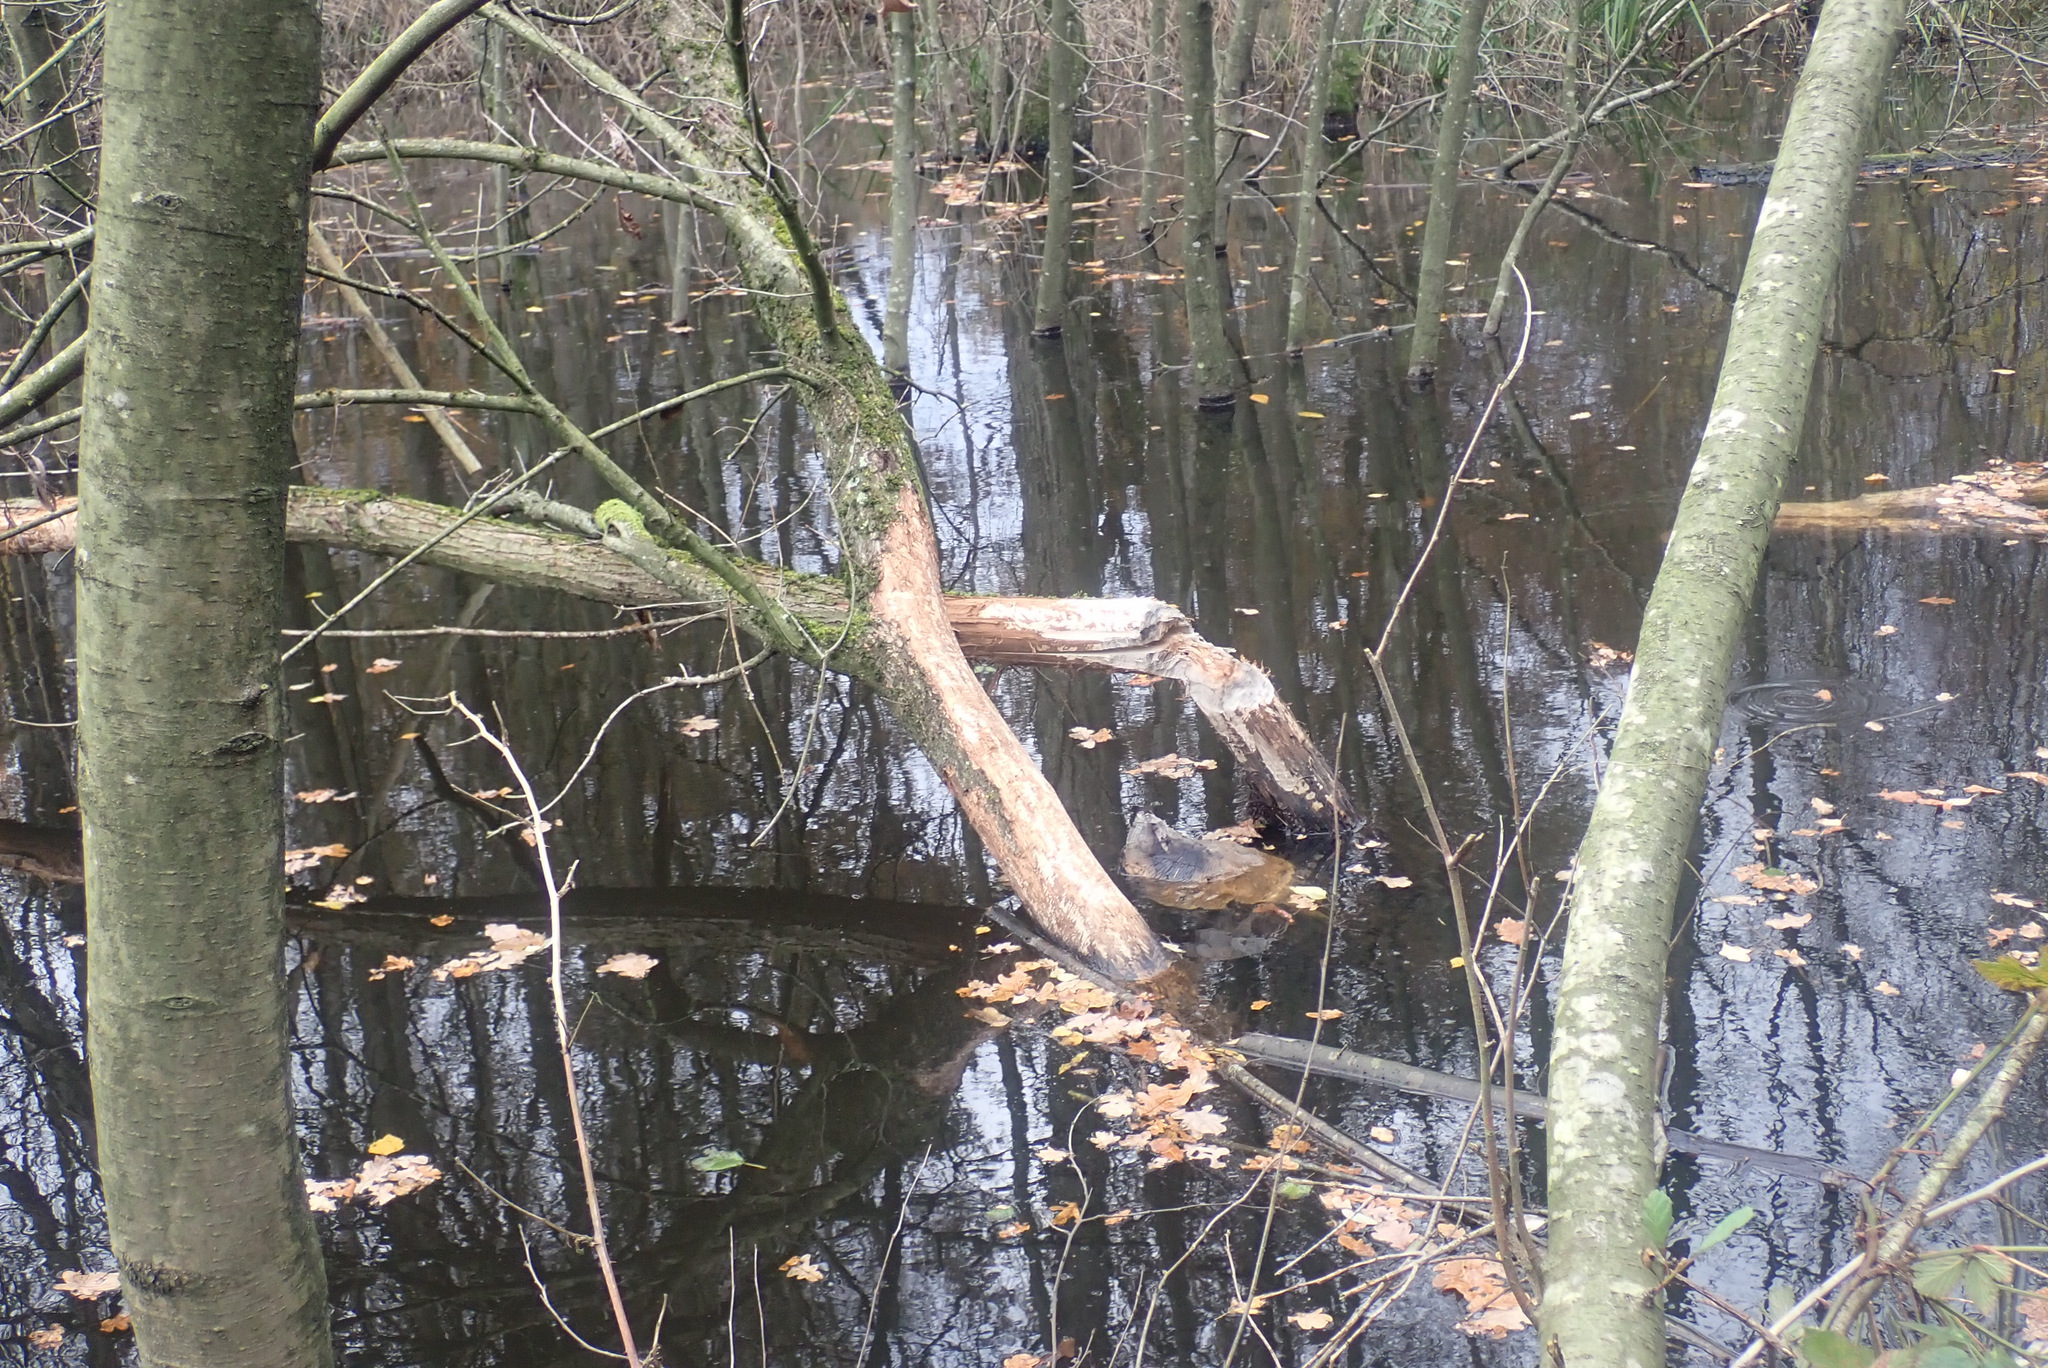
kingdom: Animalia
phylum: Chordata
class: Mammalia
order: Rodentia
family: Castoridae
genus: Castor
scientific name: Castor fiber
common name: Eurasian beaver
